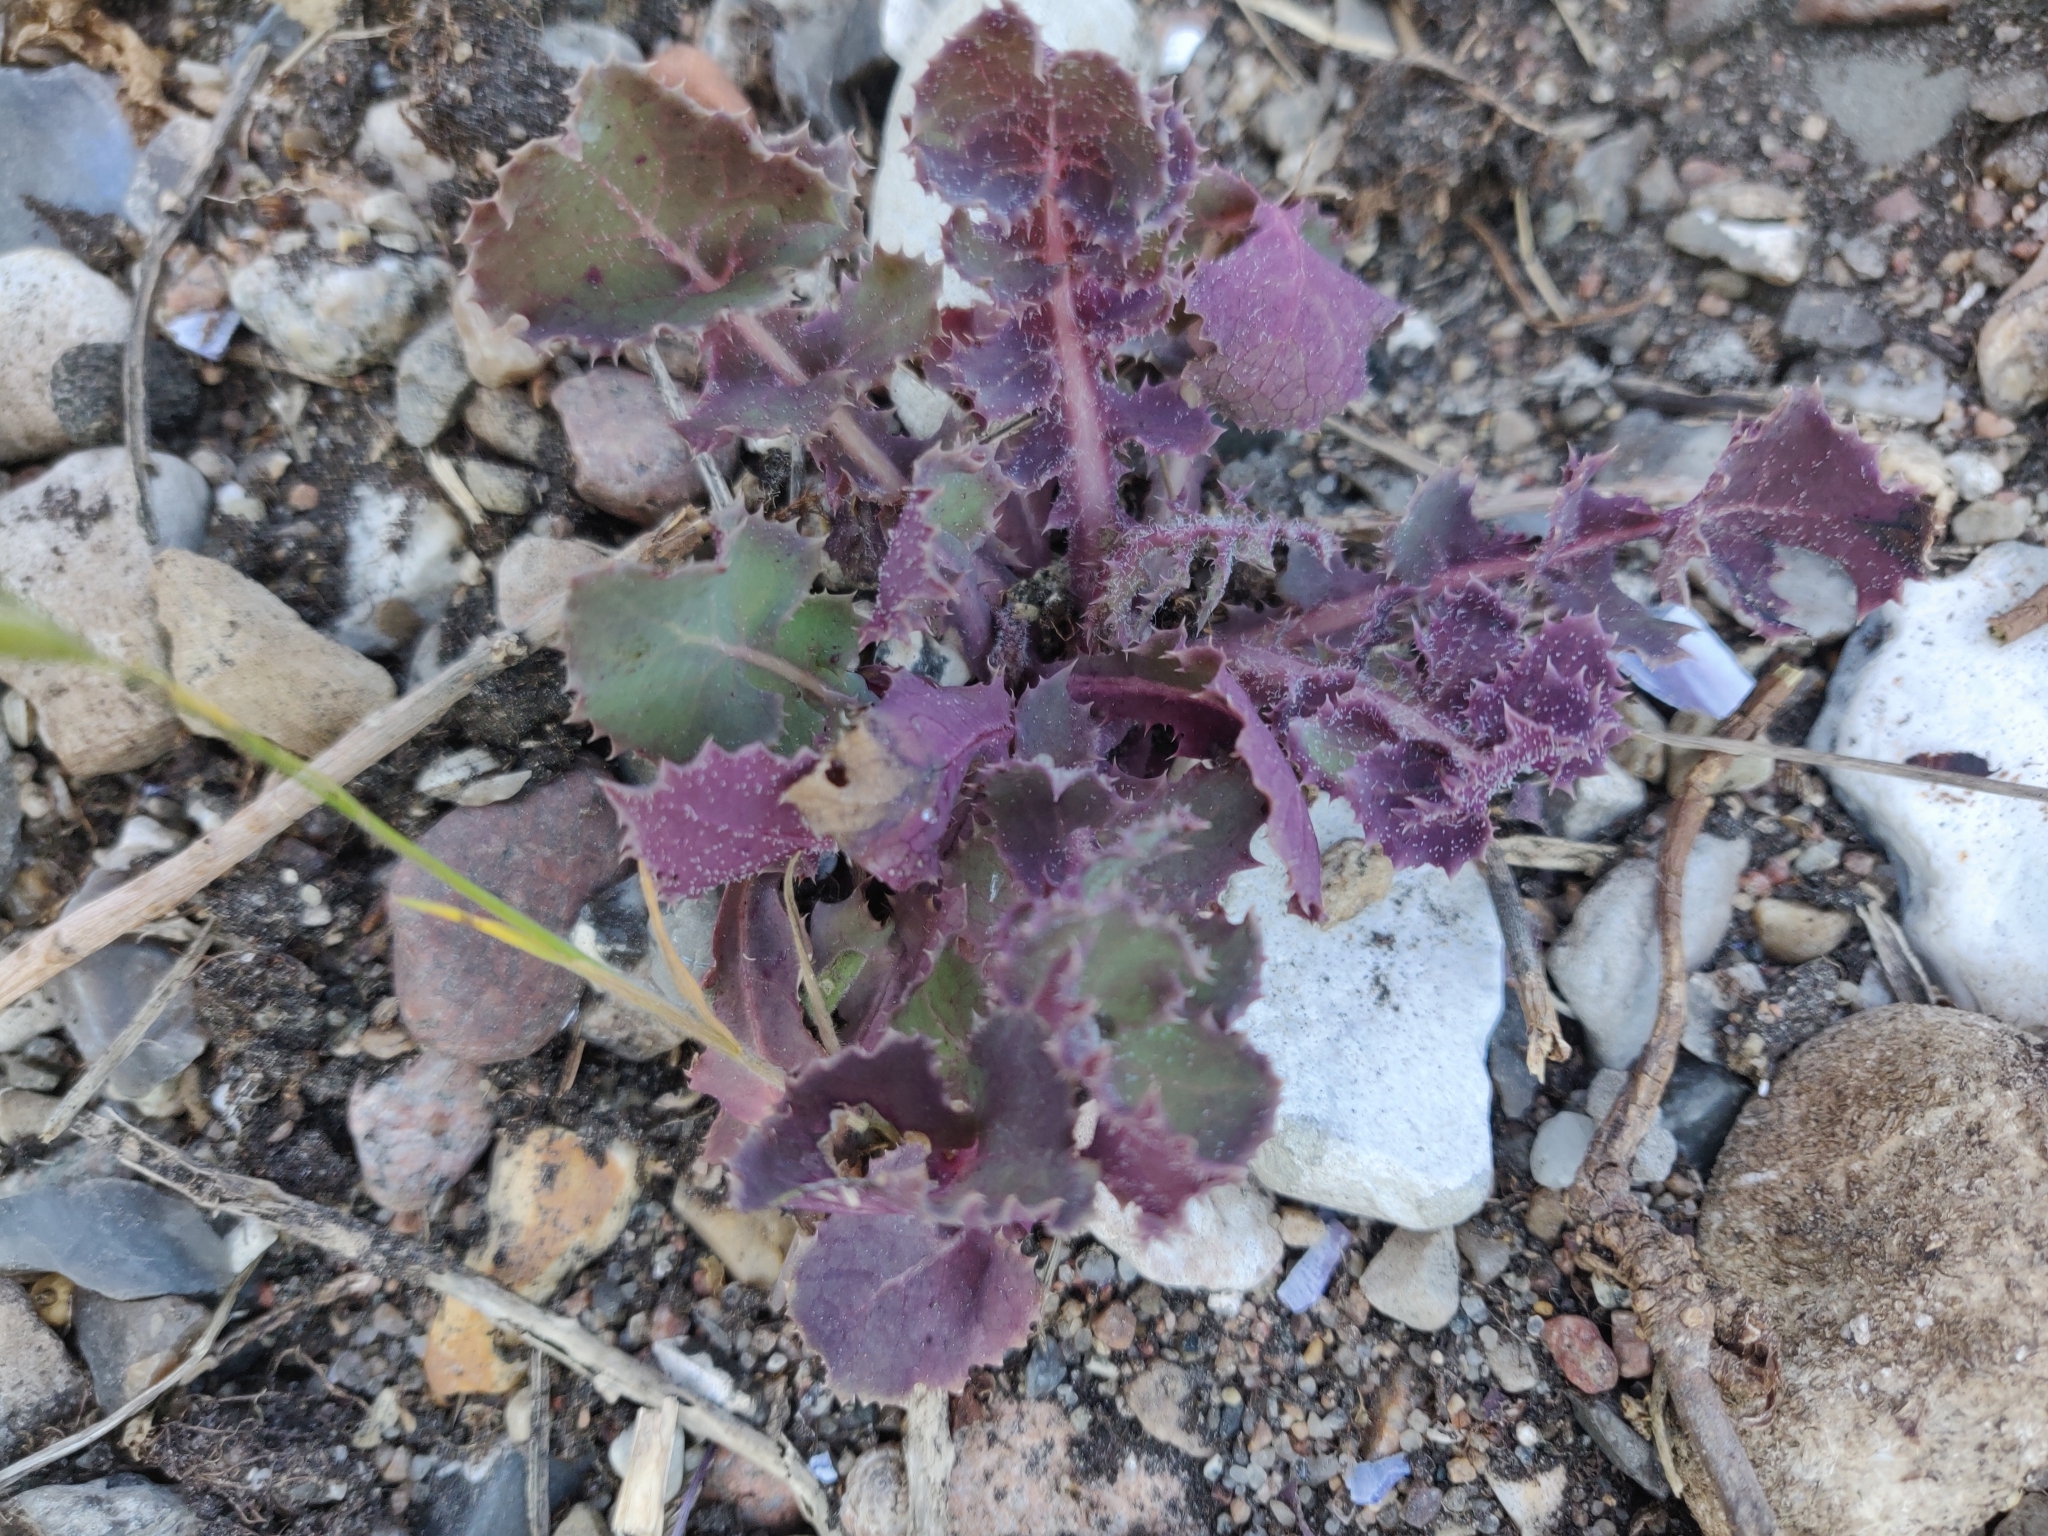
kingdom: Plantae
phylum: Tracheophyta
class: Magnoliopsida
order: Asterales
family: Asteraceae
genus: Sonchus
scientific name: Sonchus oleraceus
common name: Common sowthistle
